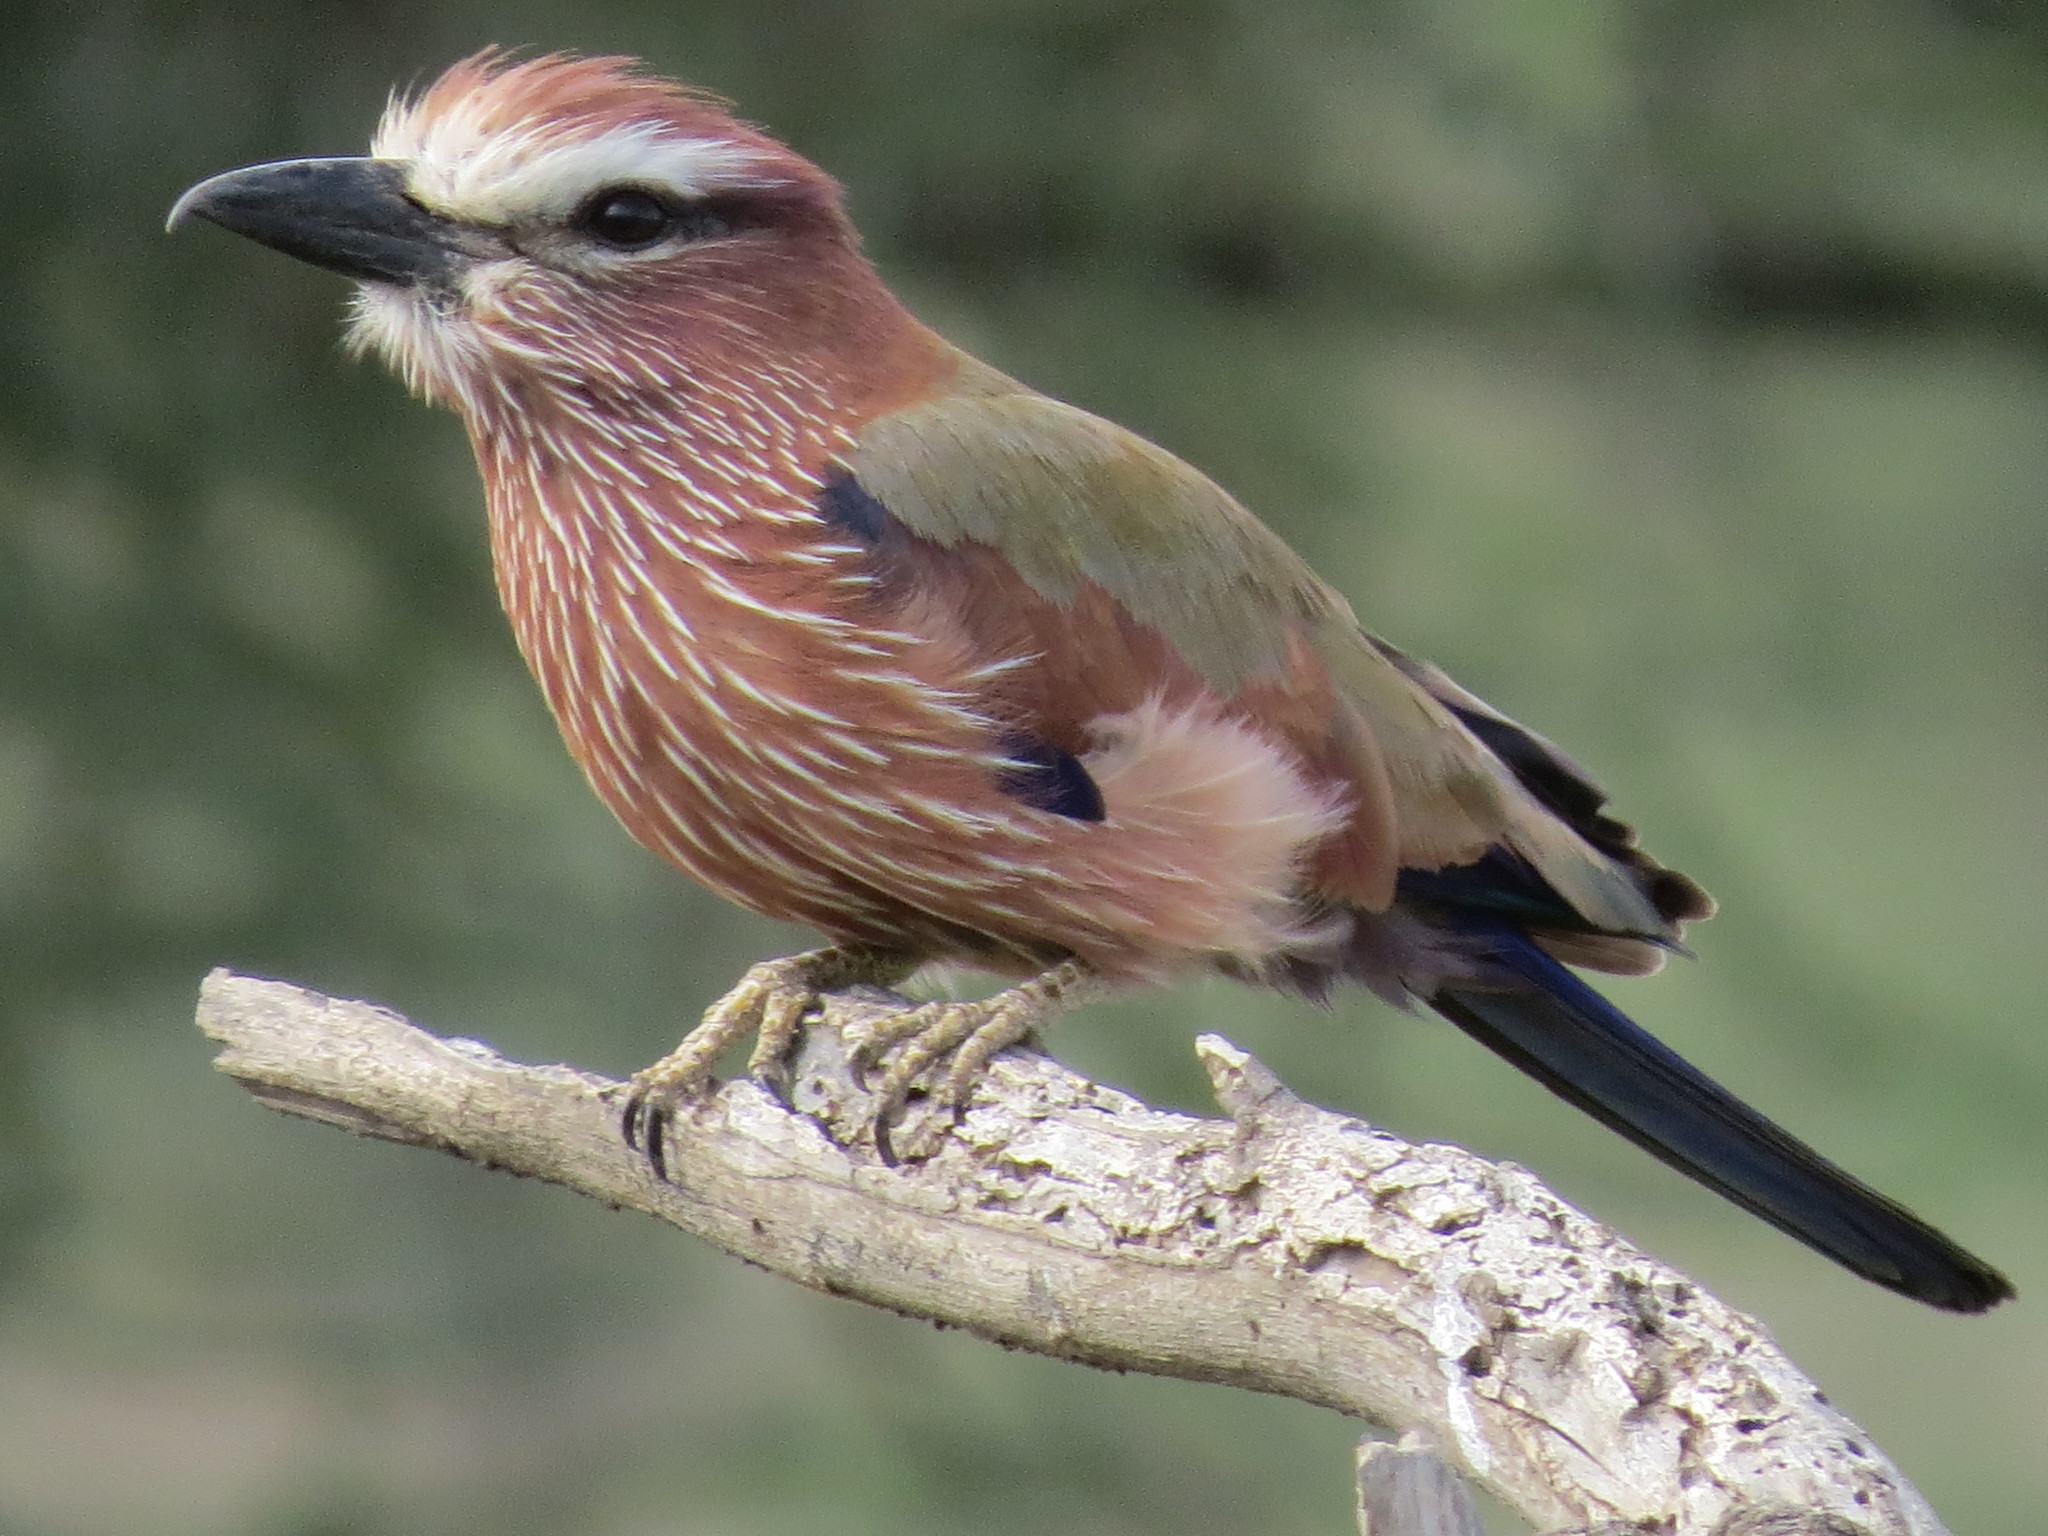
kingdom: Animalia
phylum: Chordata
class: Aves
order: Coraciiformes
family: Coraciidae
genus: Coracias
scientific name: Coracias naevius
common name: Purple roller
